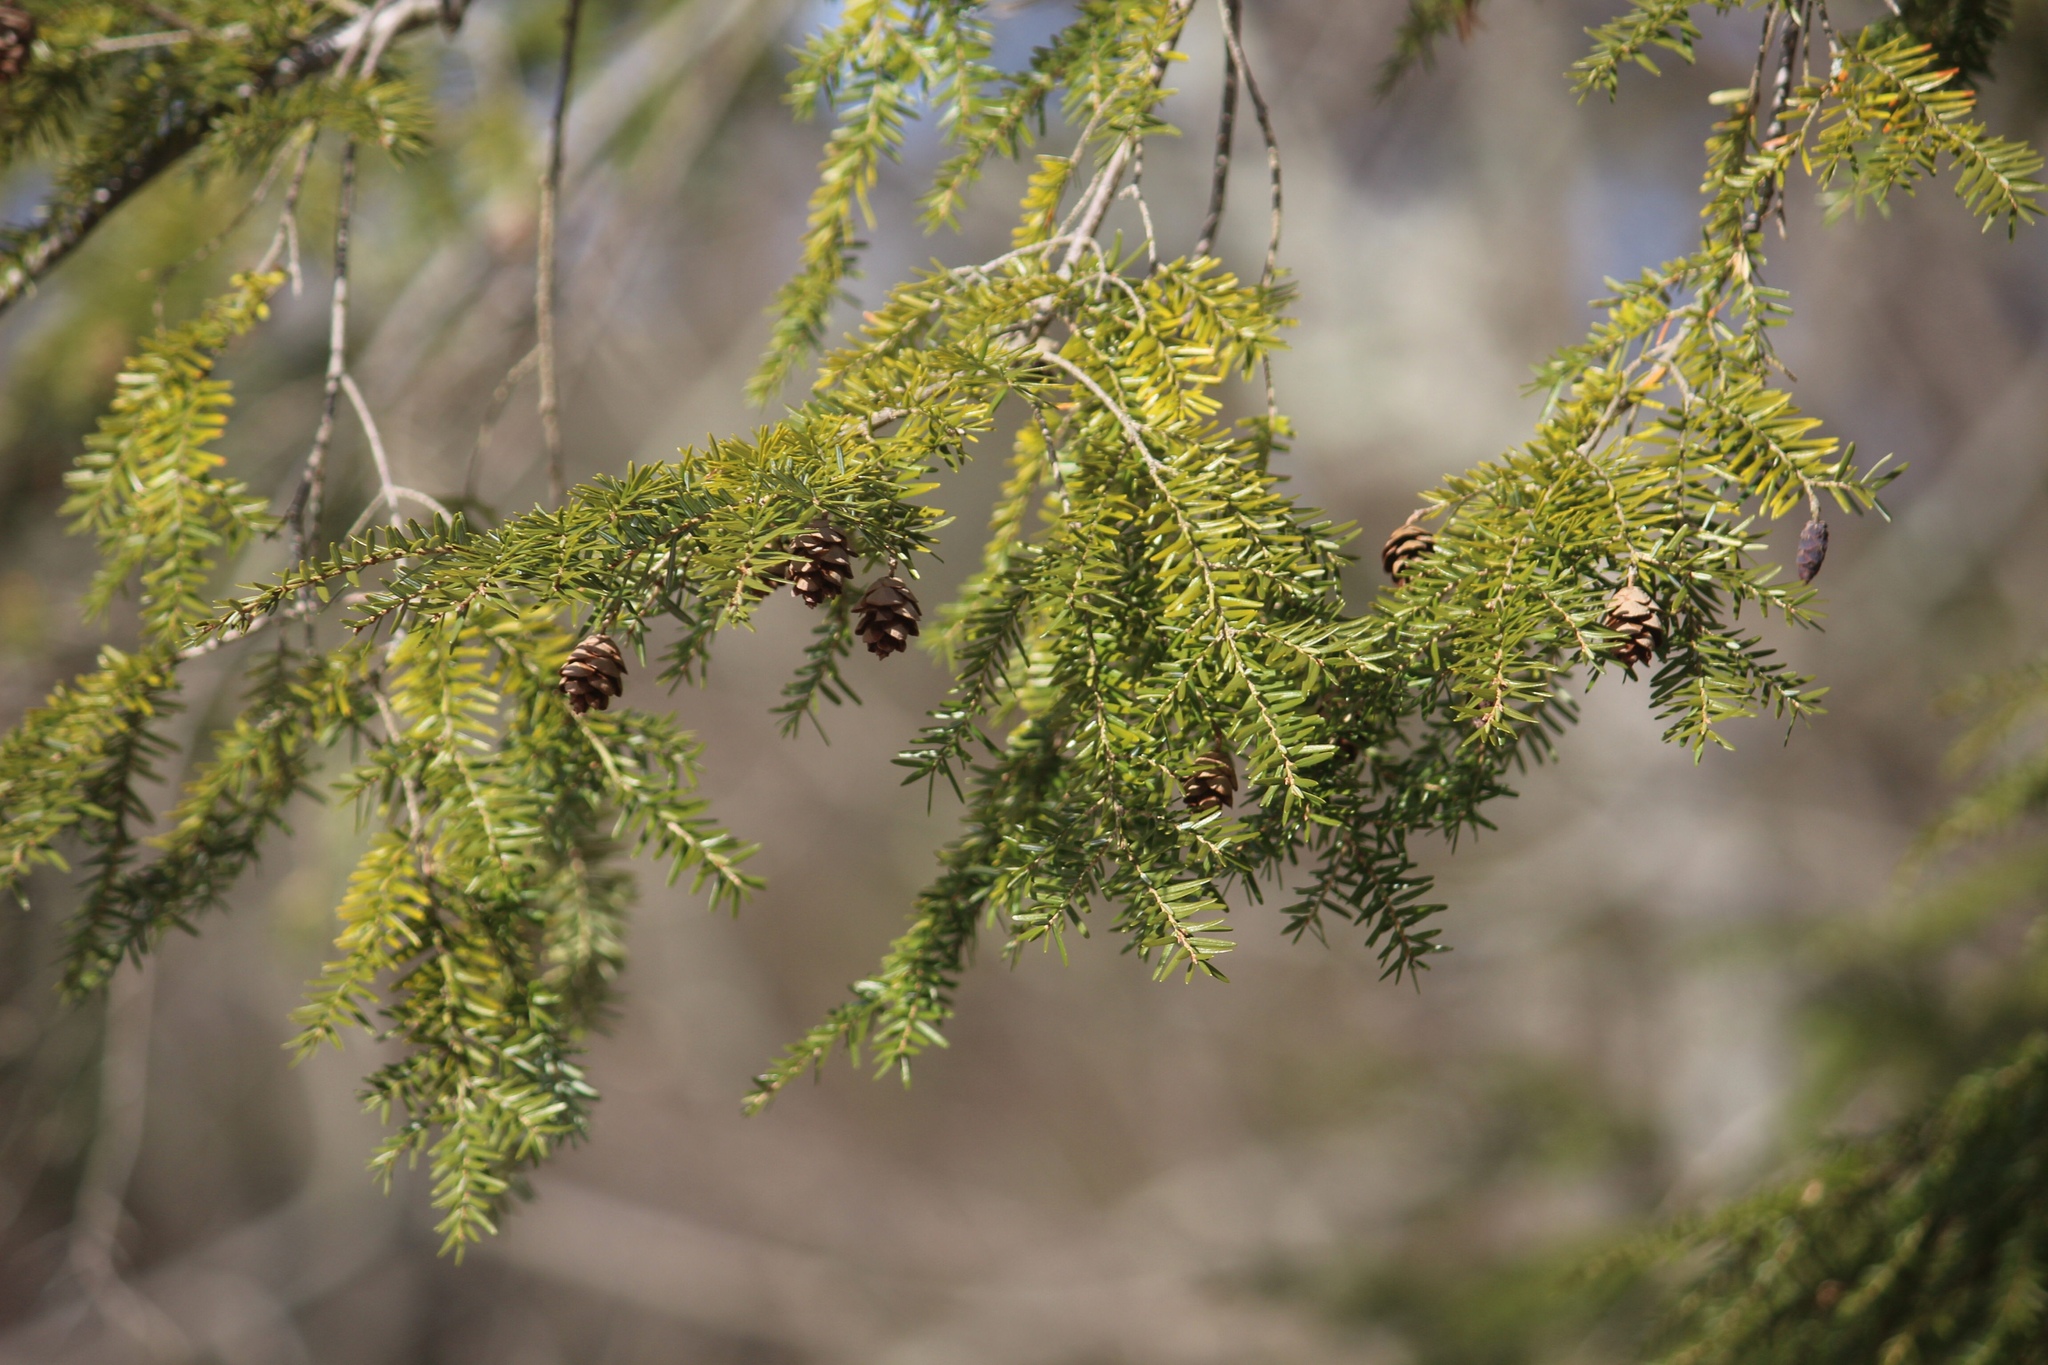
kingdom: Plantae
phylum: Tracheophyta
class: Pinopsida
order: Pinales
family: Pinaceae
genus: Tsuga
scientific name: Tsuga canadensis
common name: Eastern hemlock
